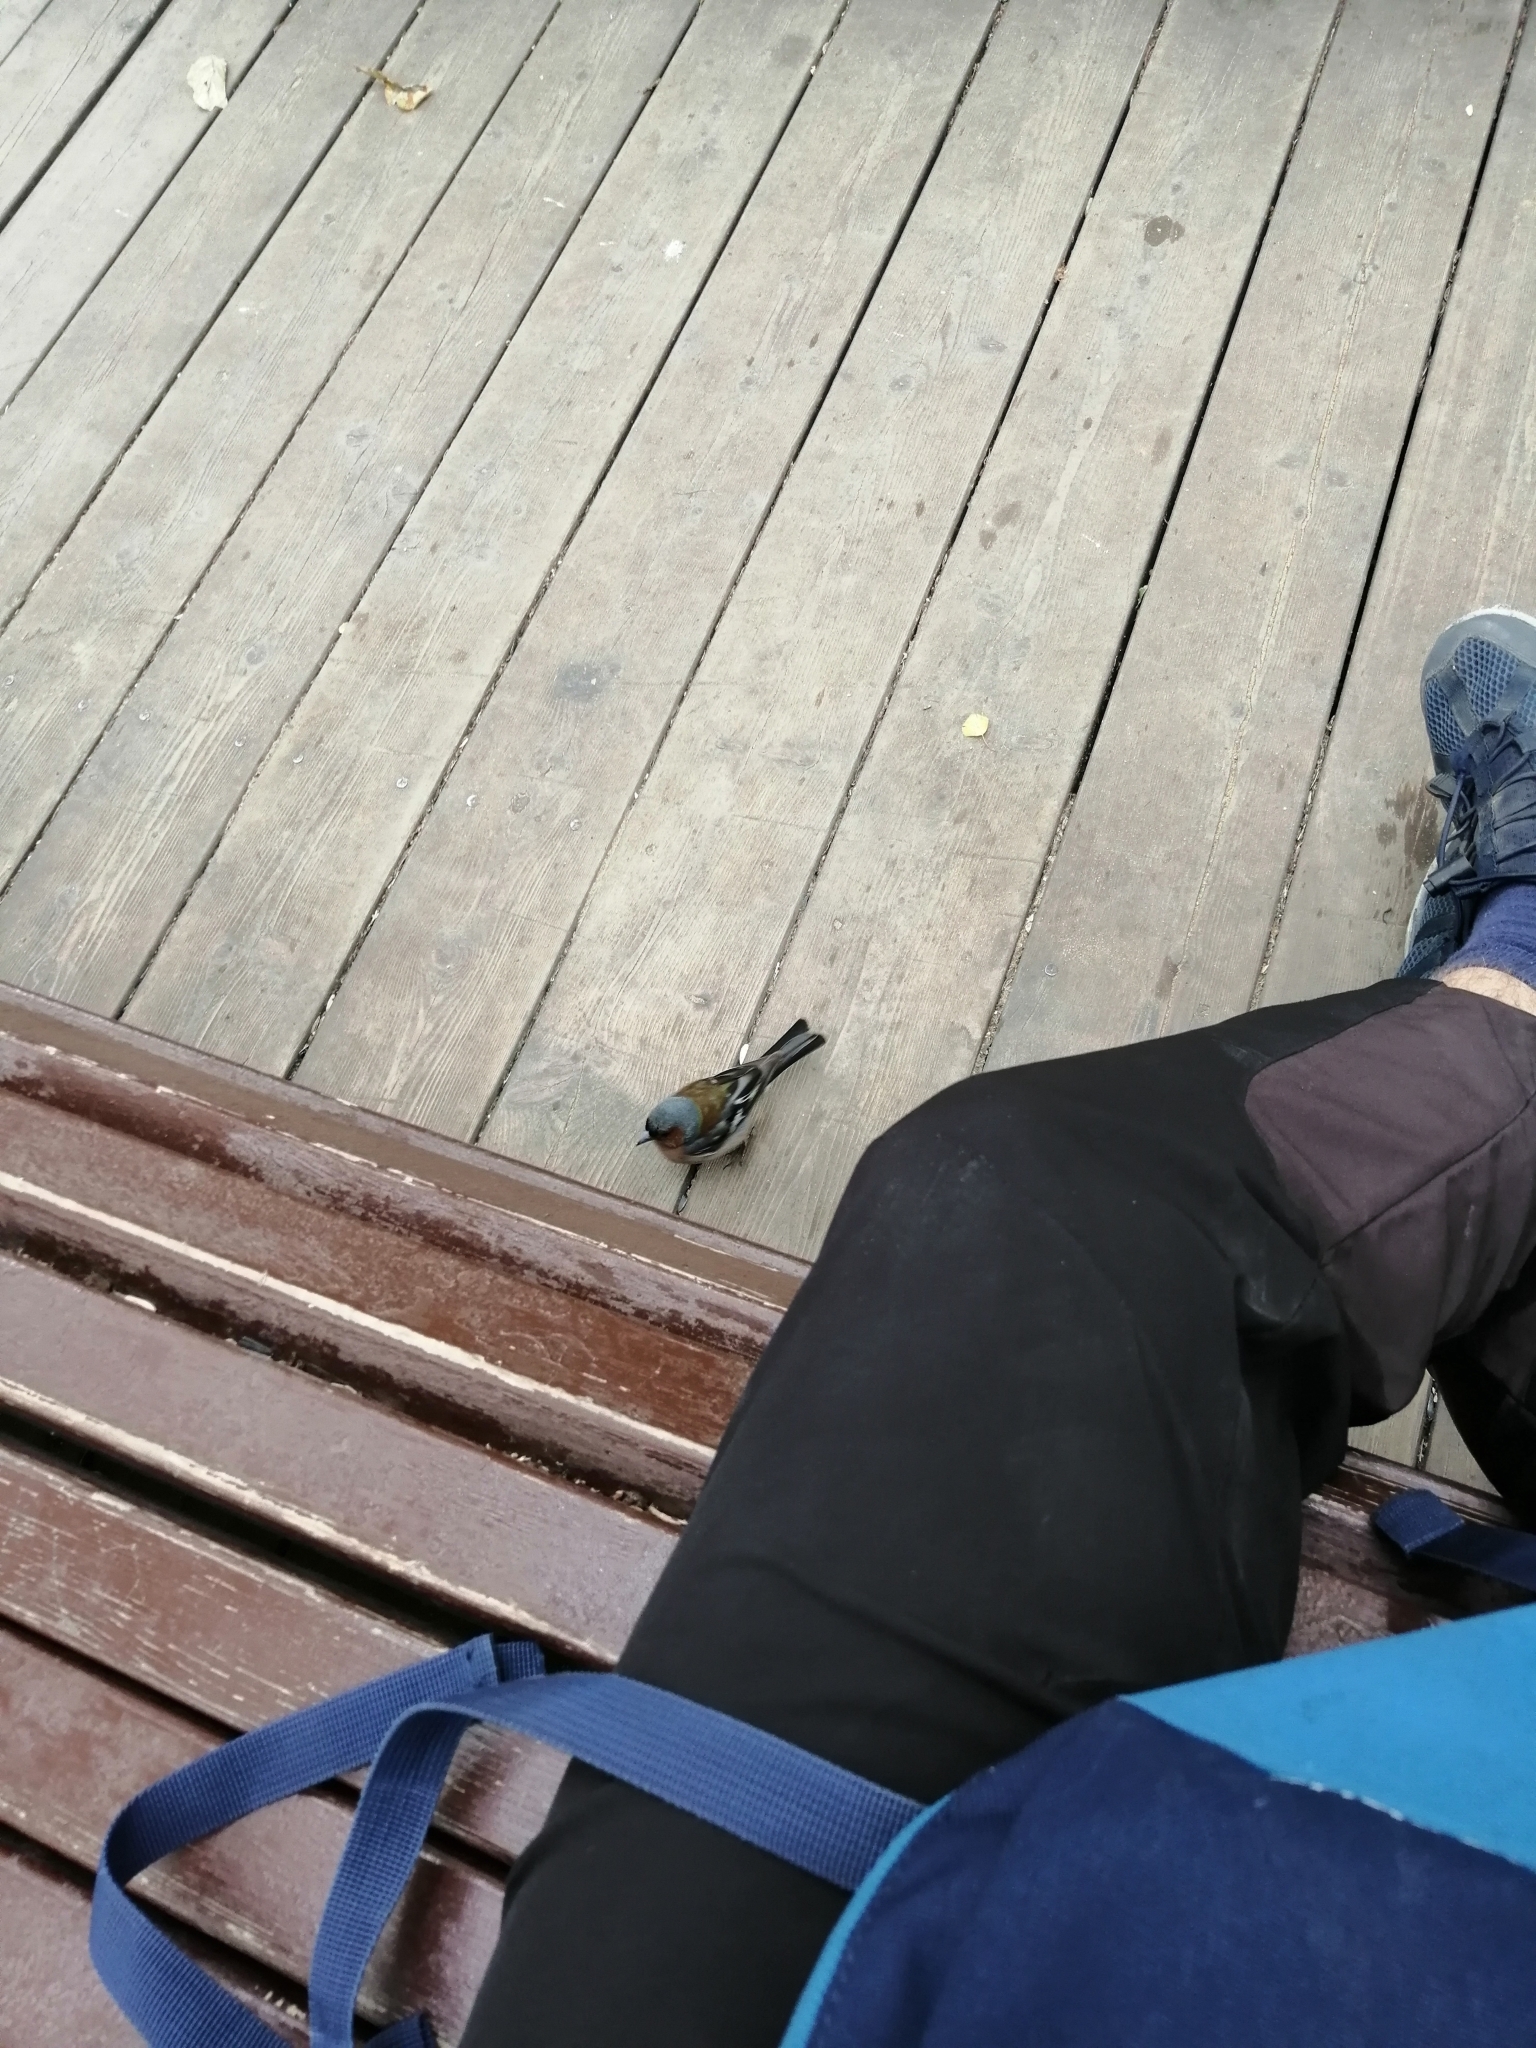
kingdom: Animalia
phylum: Chordata
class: Aves
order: Passeriformes
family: Fringillidae
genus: Fringilla
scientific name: Fringilla coelebs
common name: Common chaffinch
